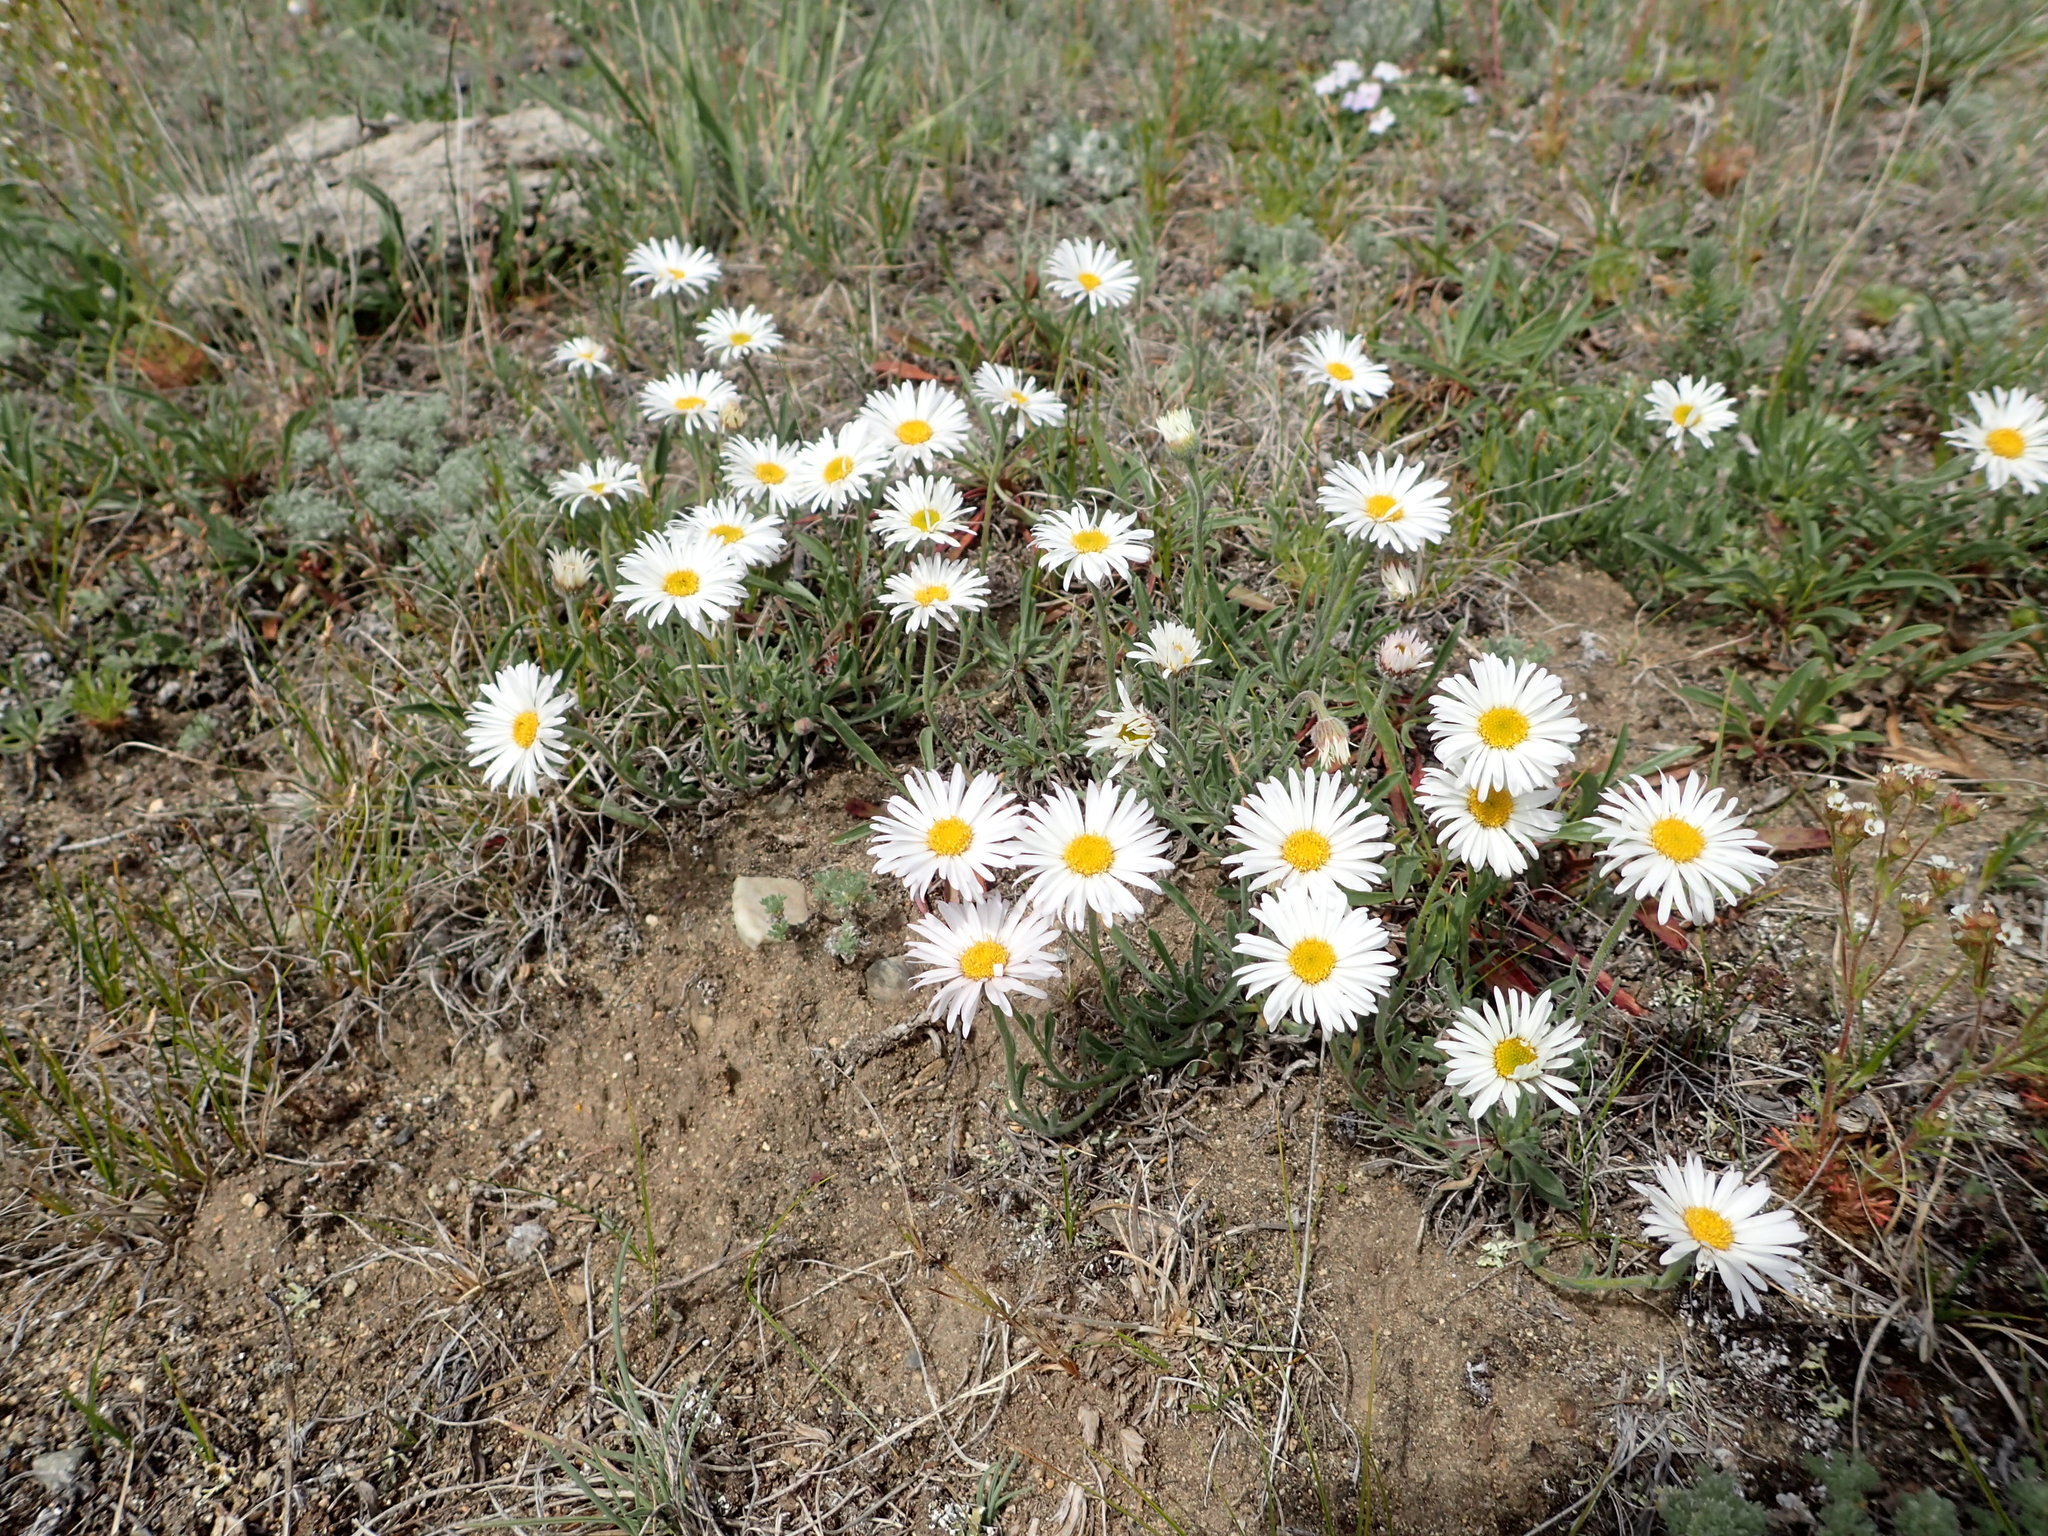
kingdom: Plantae
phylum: Tracheophyta
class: Magnoliopsida
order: Asterales
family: Asteraceae
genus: Erigeron
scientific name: Erigeron caespitosus
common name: Tufted fleabane
